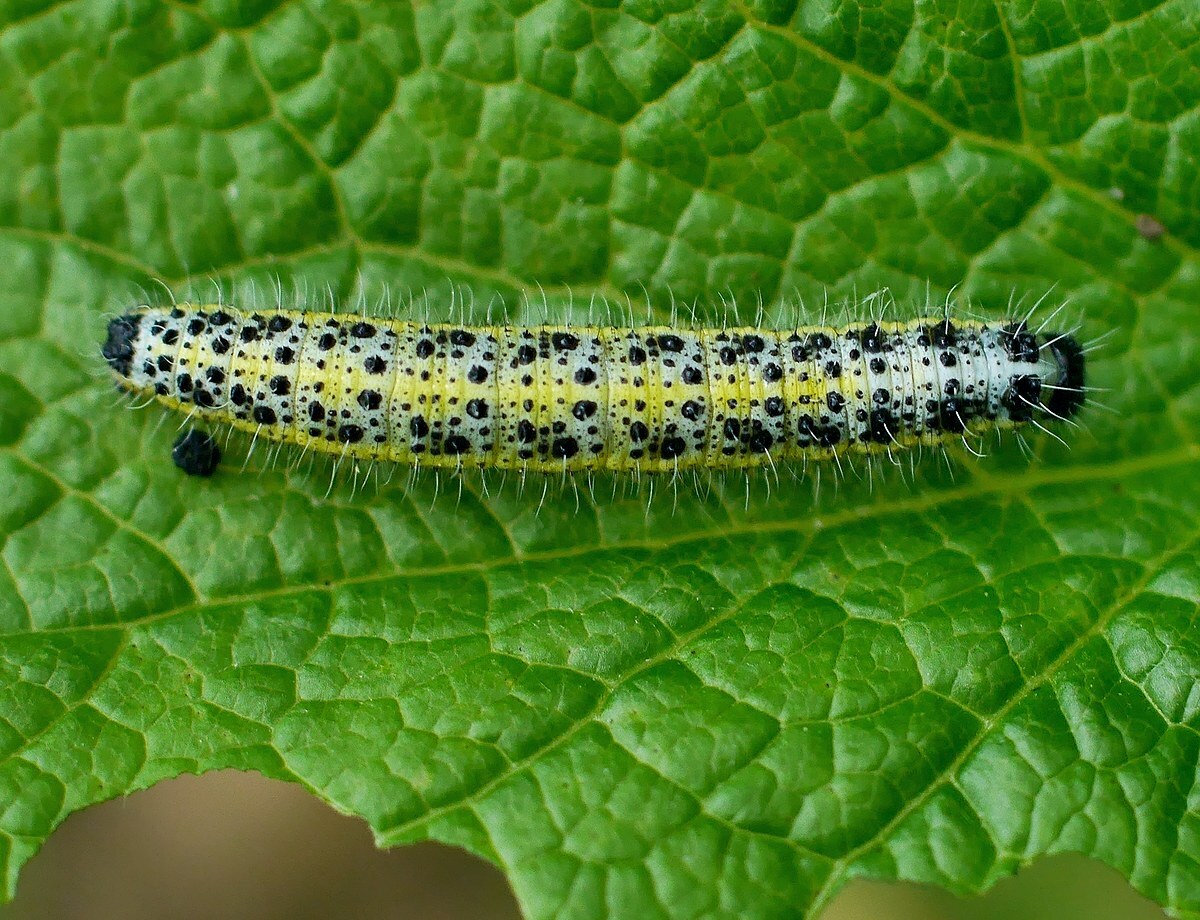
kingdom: Animalia
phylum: Arthropoda
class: Insecta
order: Lepidoptera
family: Pieridae
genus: Pieris
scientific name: Pieris brassicae
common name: Large white
